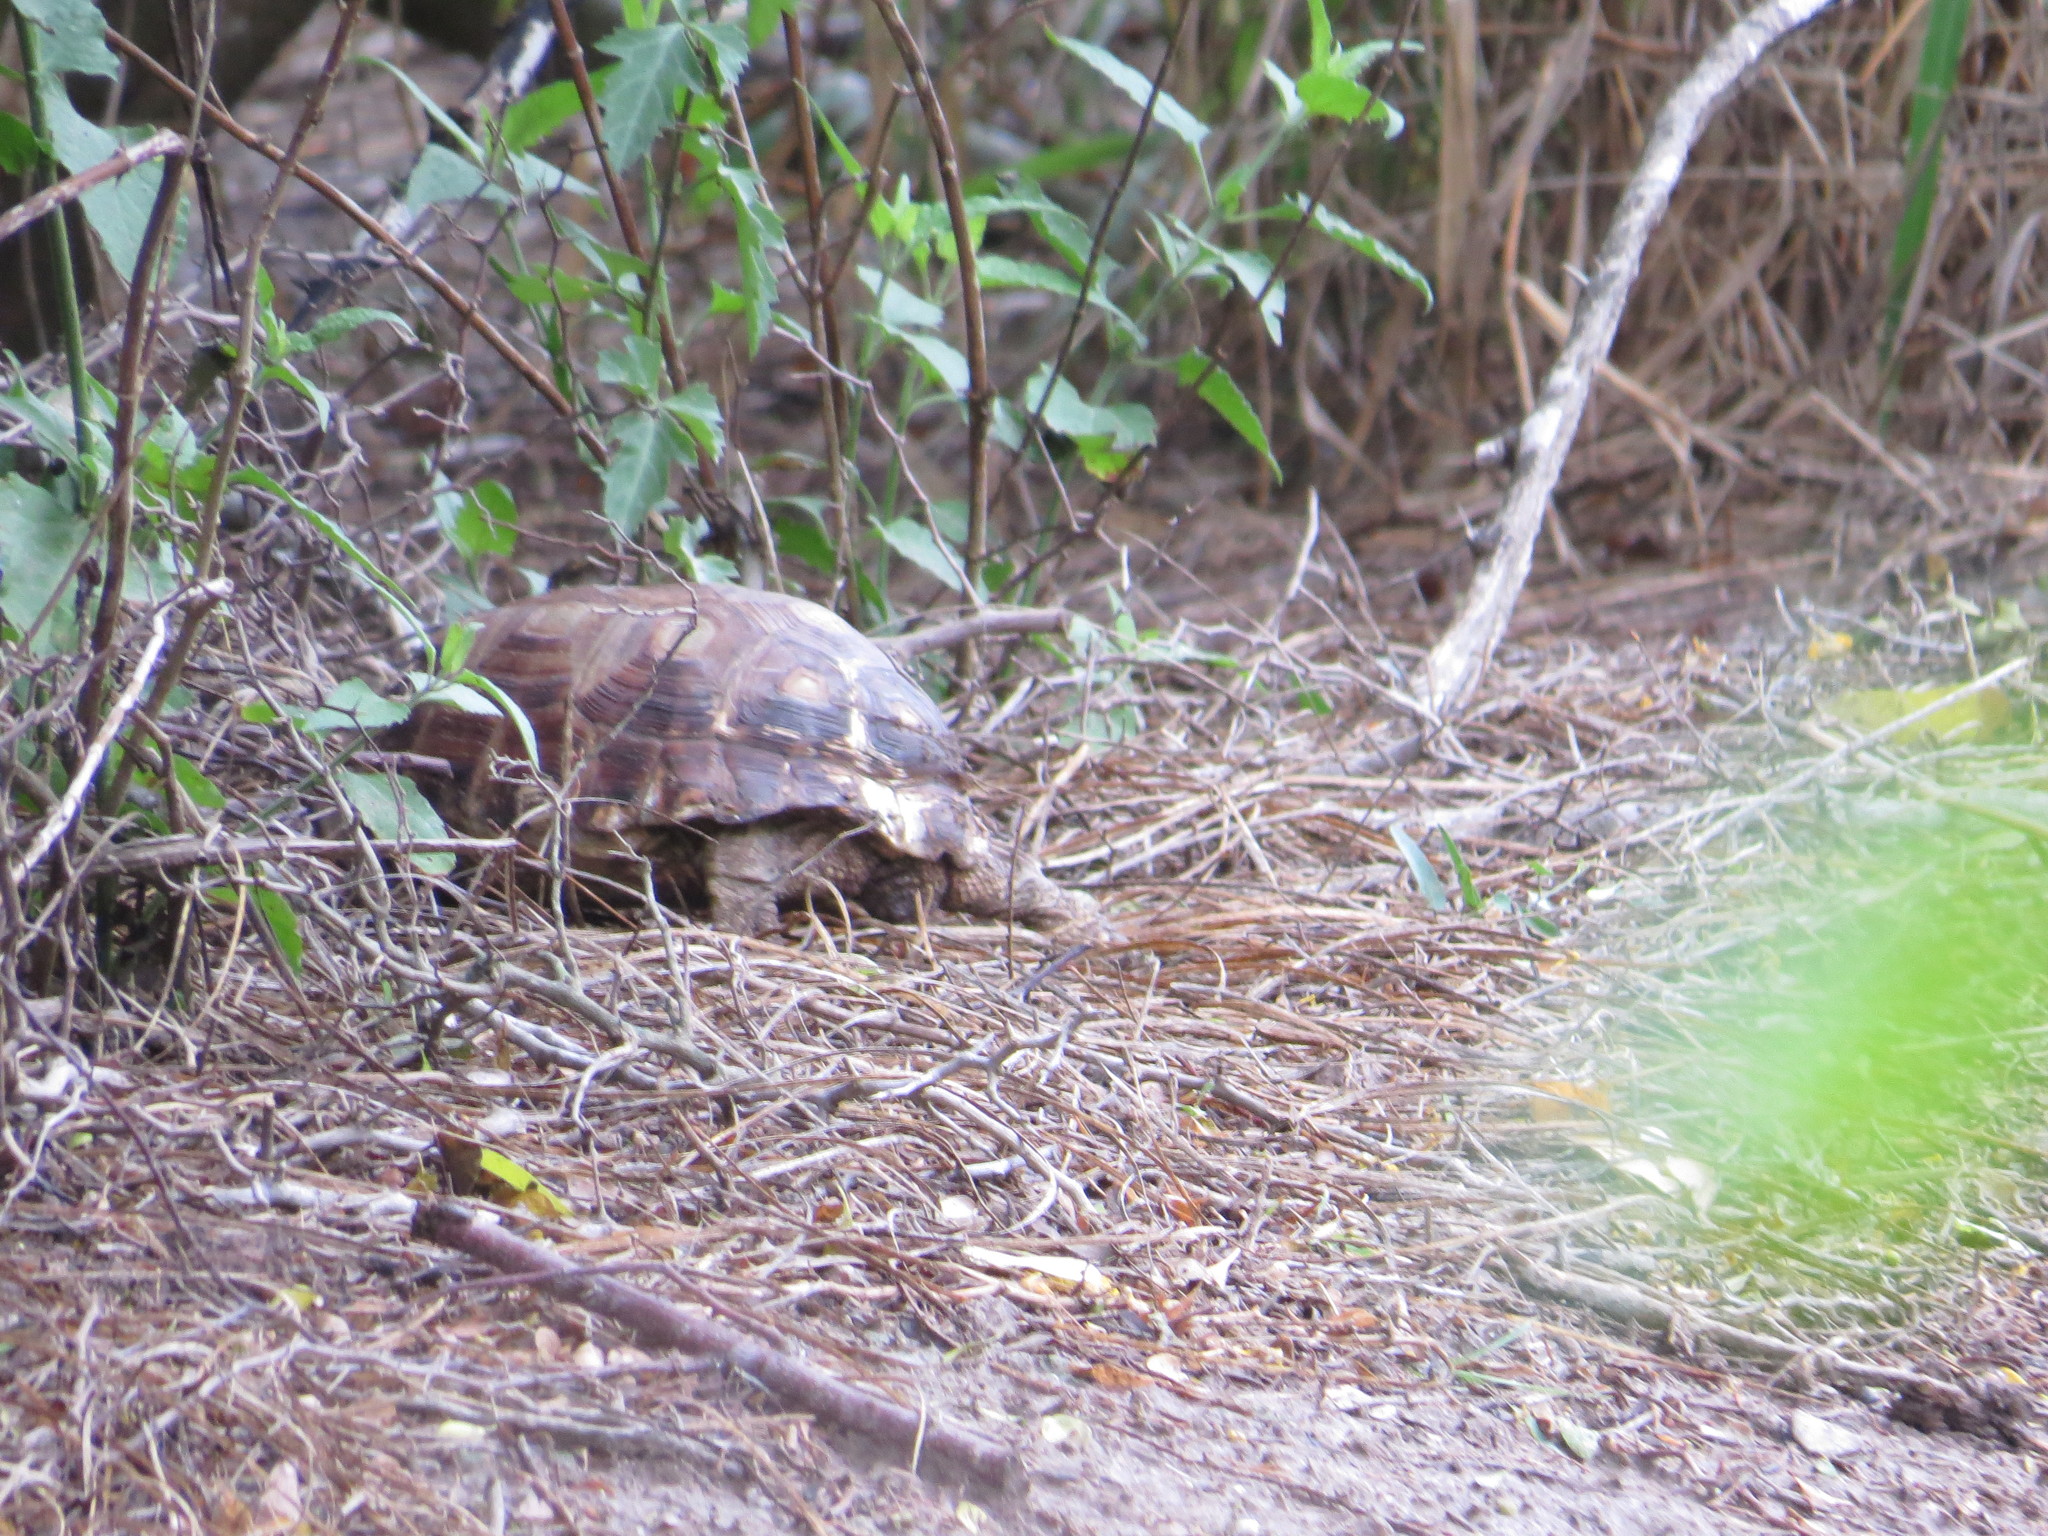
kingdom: Animalia
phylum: Chordata
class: Testudines
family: Testudinidae
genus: Gopherus
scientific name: Gopherus berlandieri
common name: Texas (gopher )tortoise
